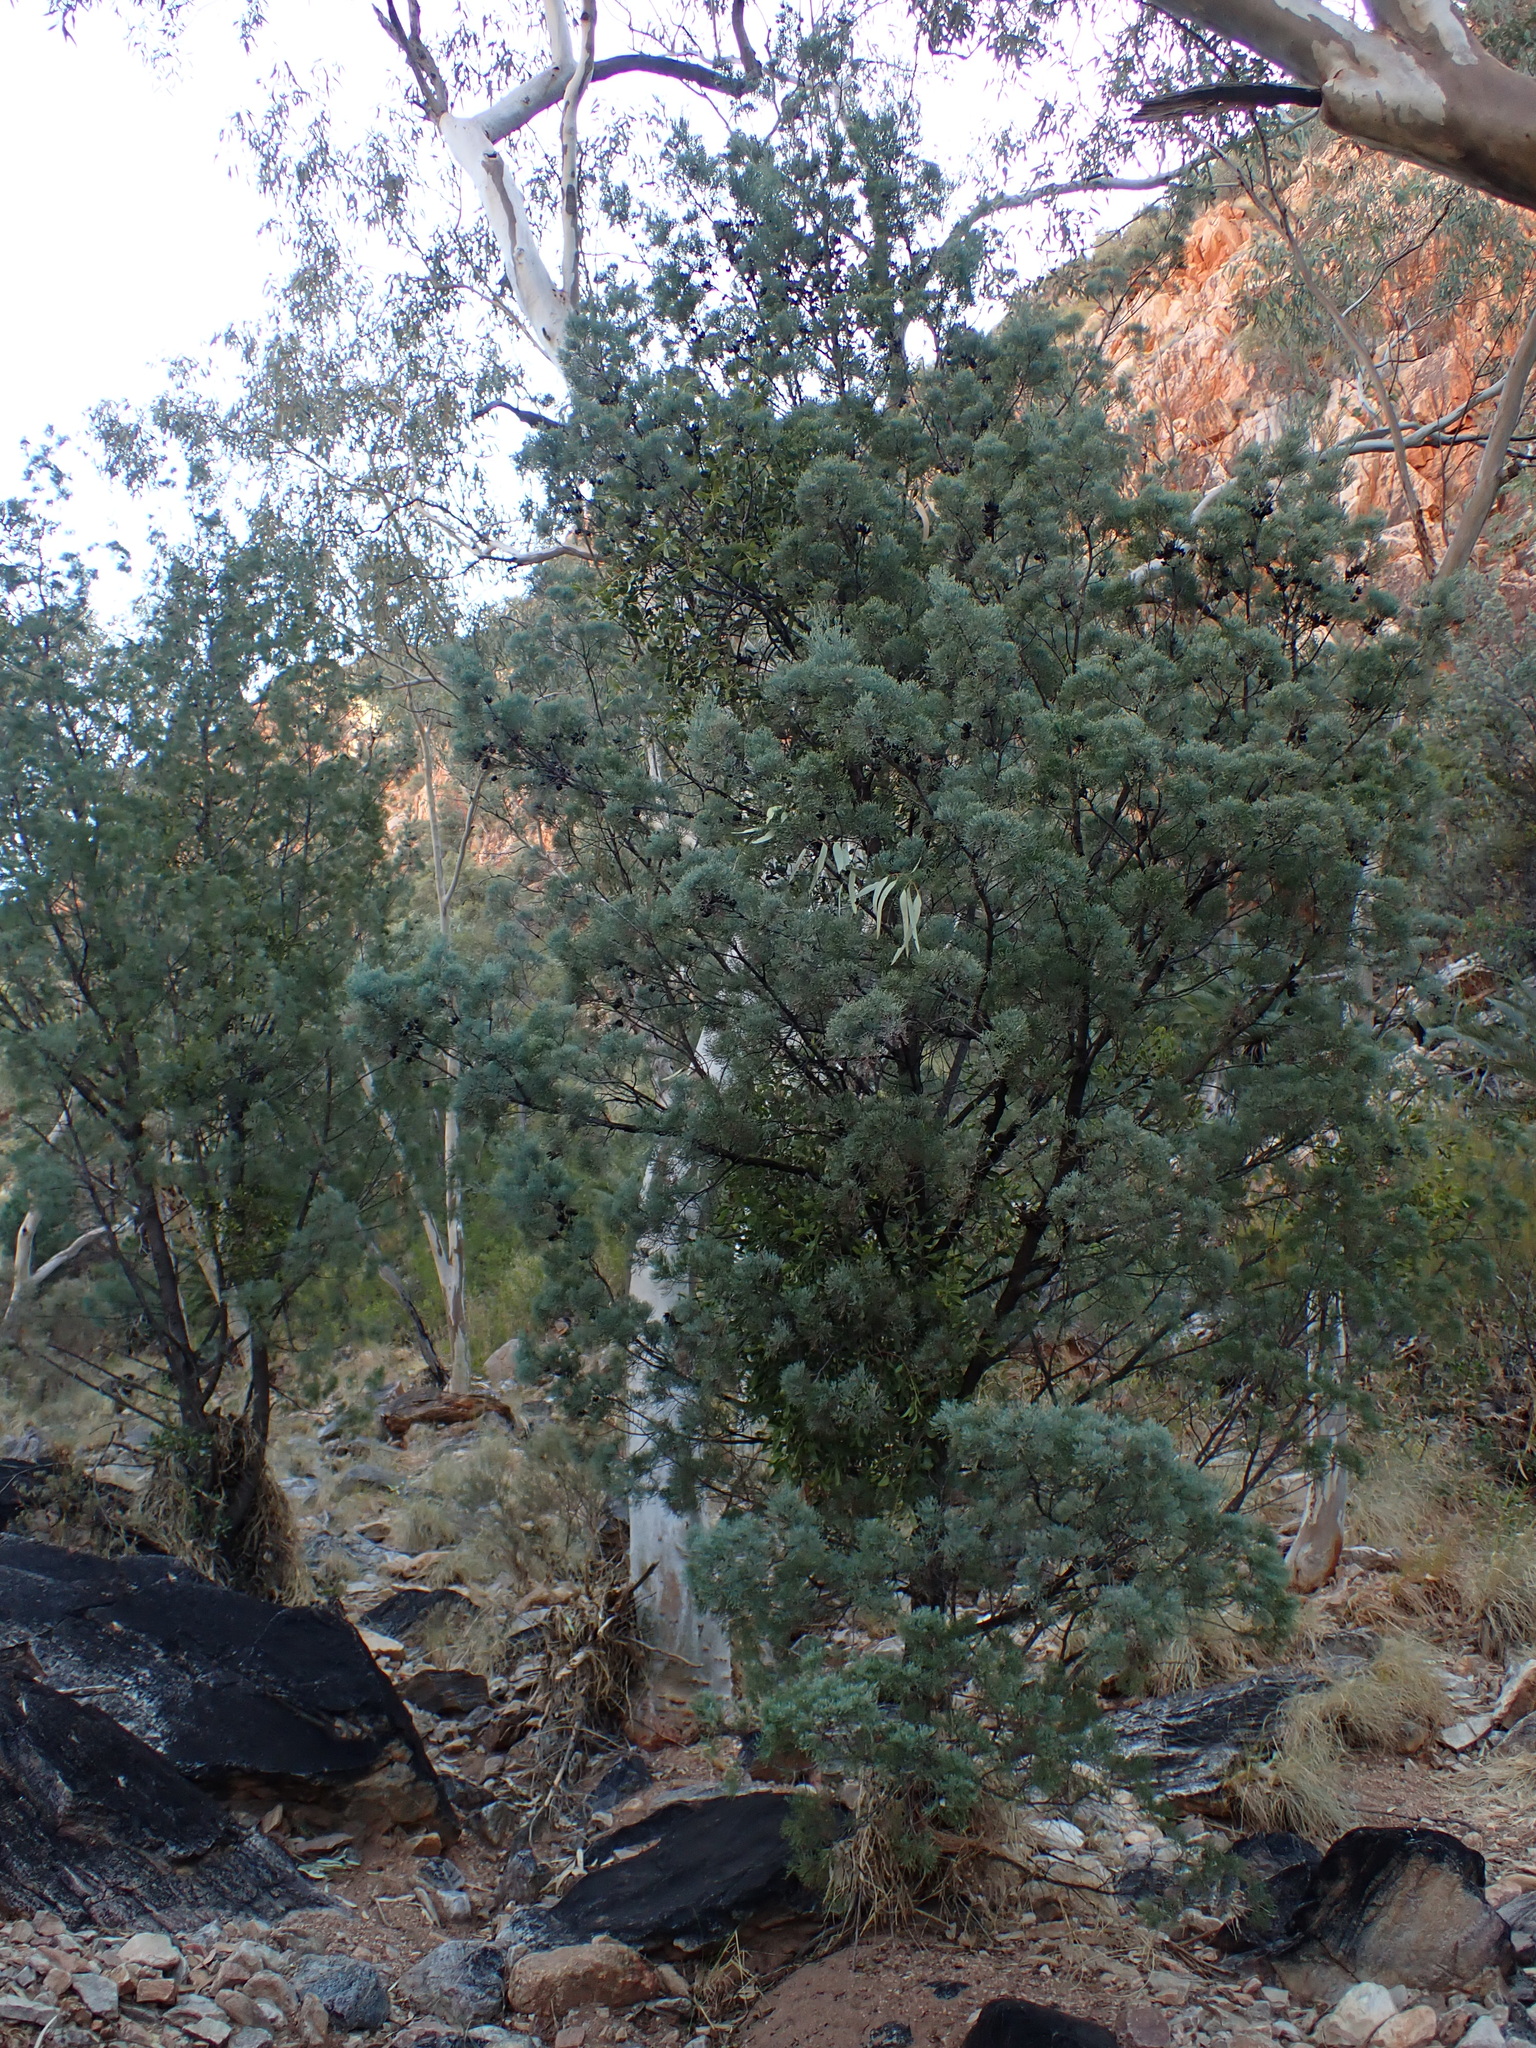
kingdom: Plantae
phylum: Tracheophyta
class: Pinopsida
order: Pinales
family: Cupressaceae
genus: Callitris
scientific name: Callitris columellaris
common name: White cypress-pine
